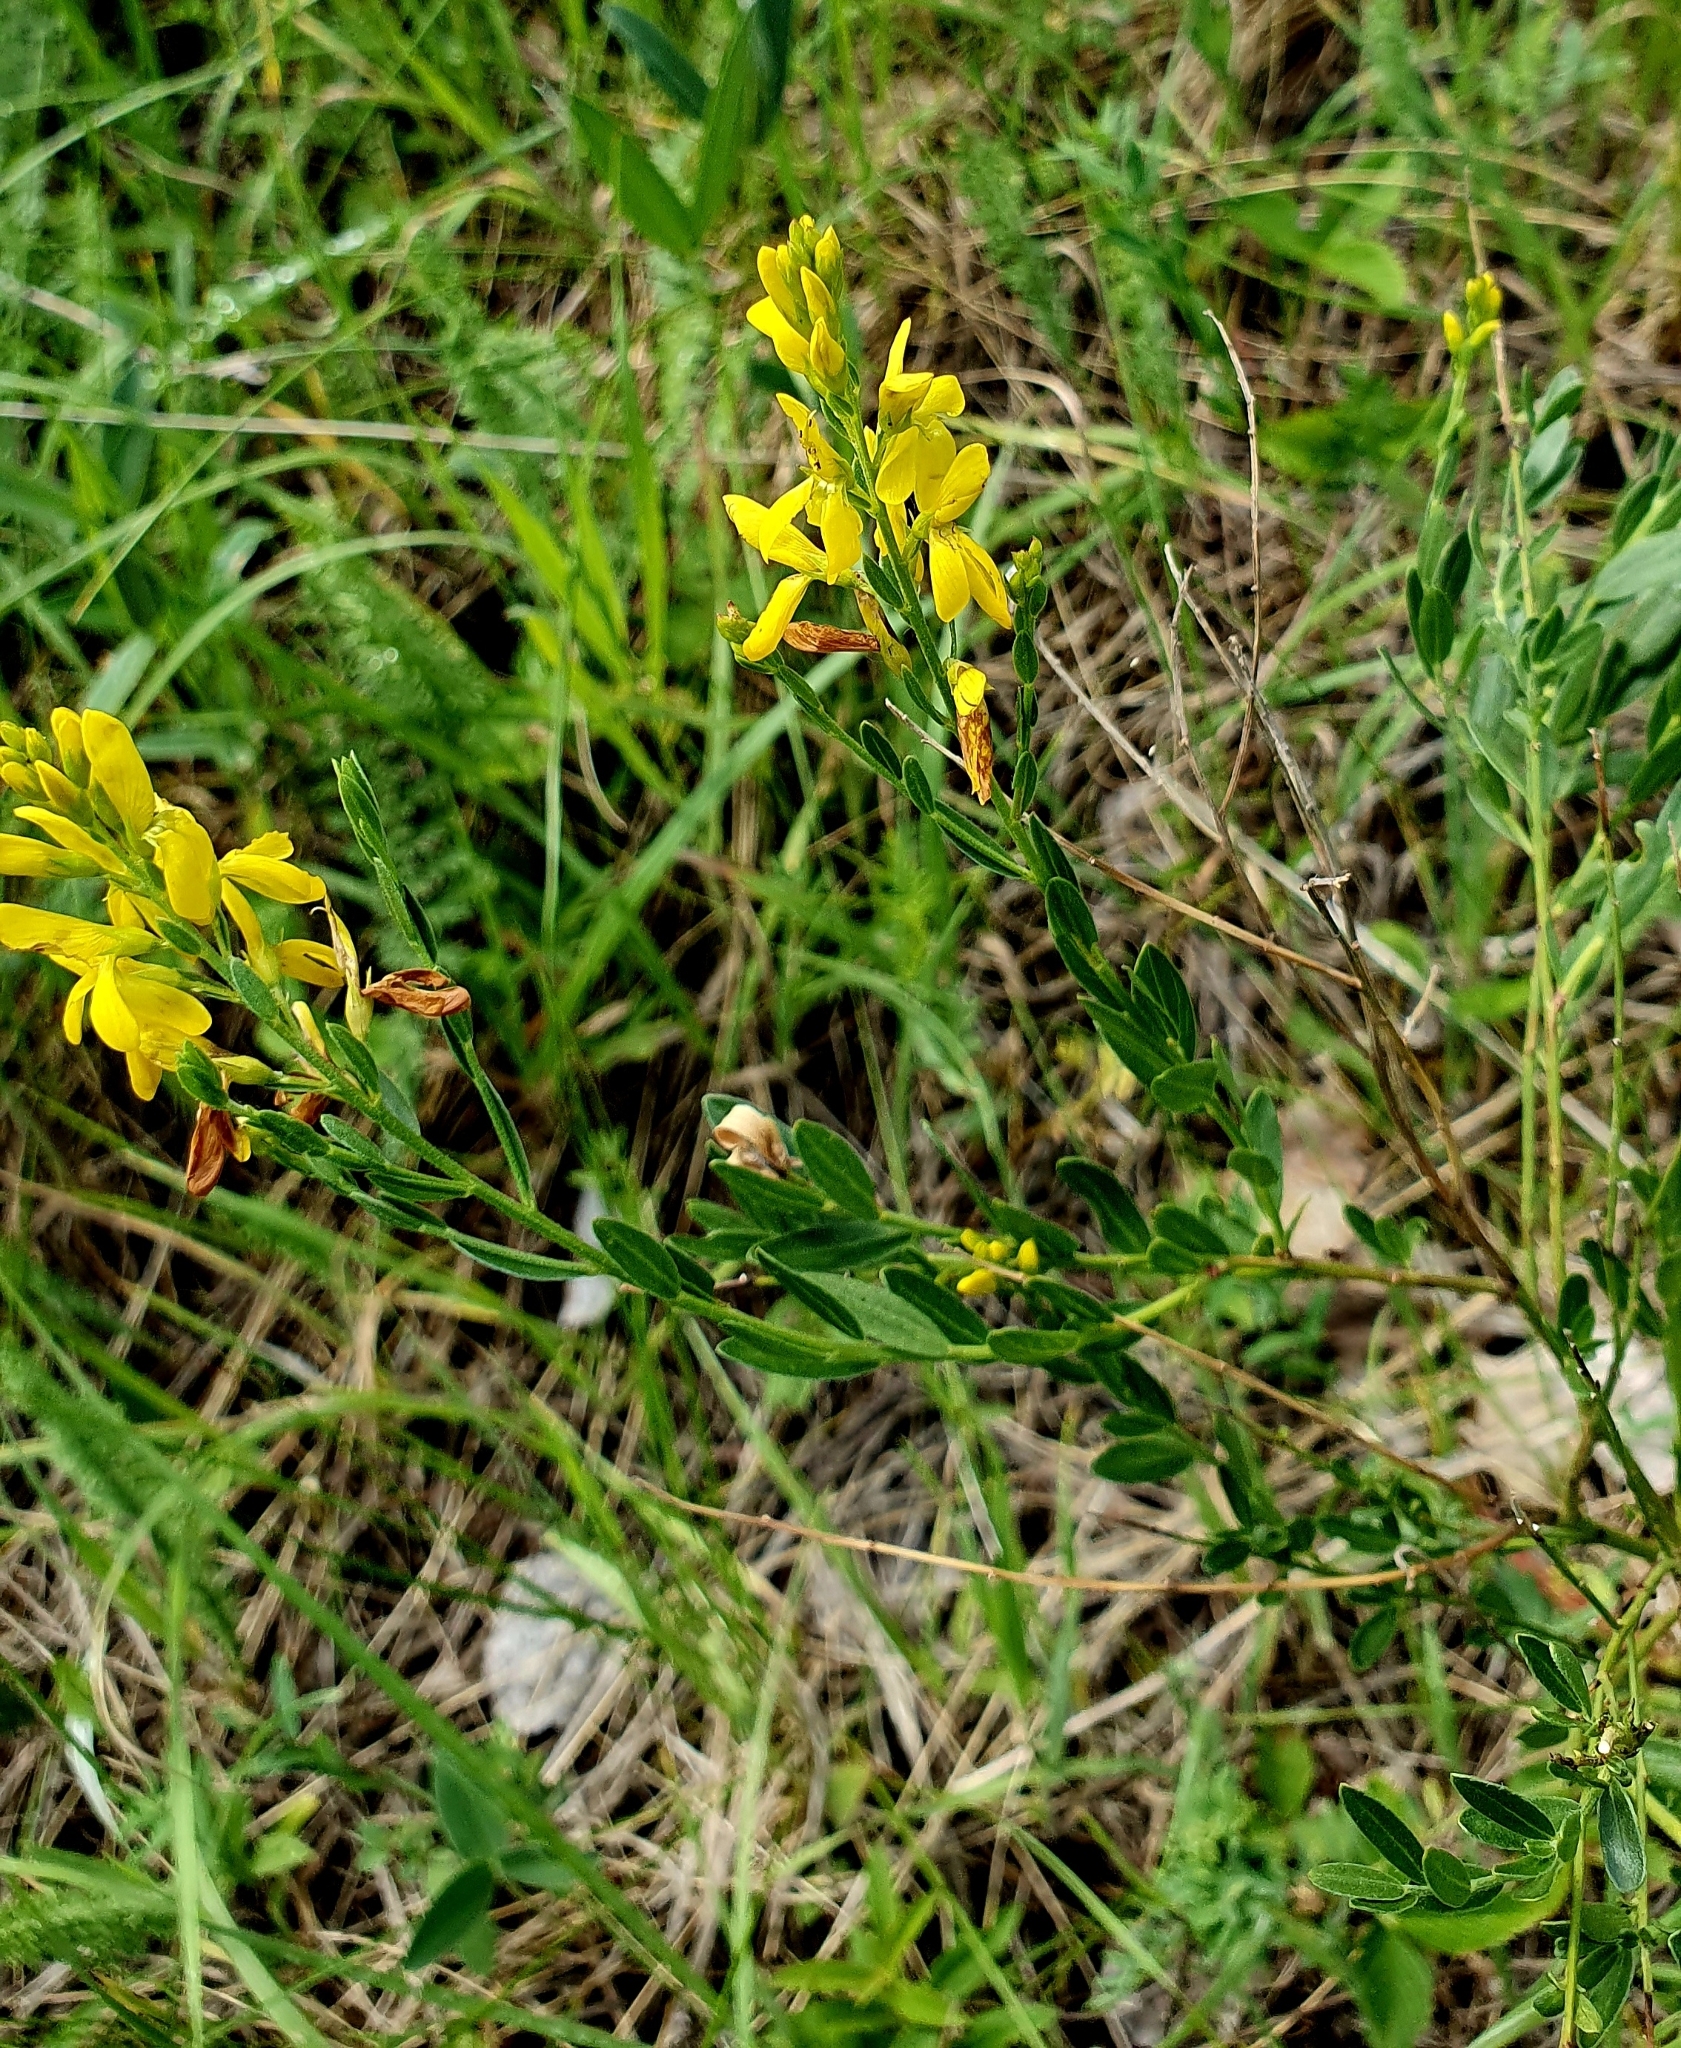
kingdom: Plantae
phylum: Tracheophyta
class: Magnoliopsida
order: Fabales
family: Fabaceae
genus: Genista
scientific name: Genista tinctoria
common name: Dyer's greenweed
